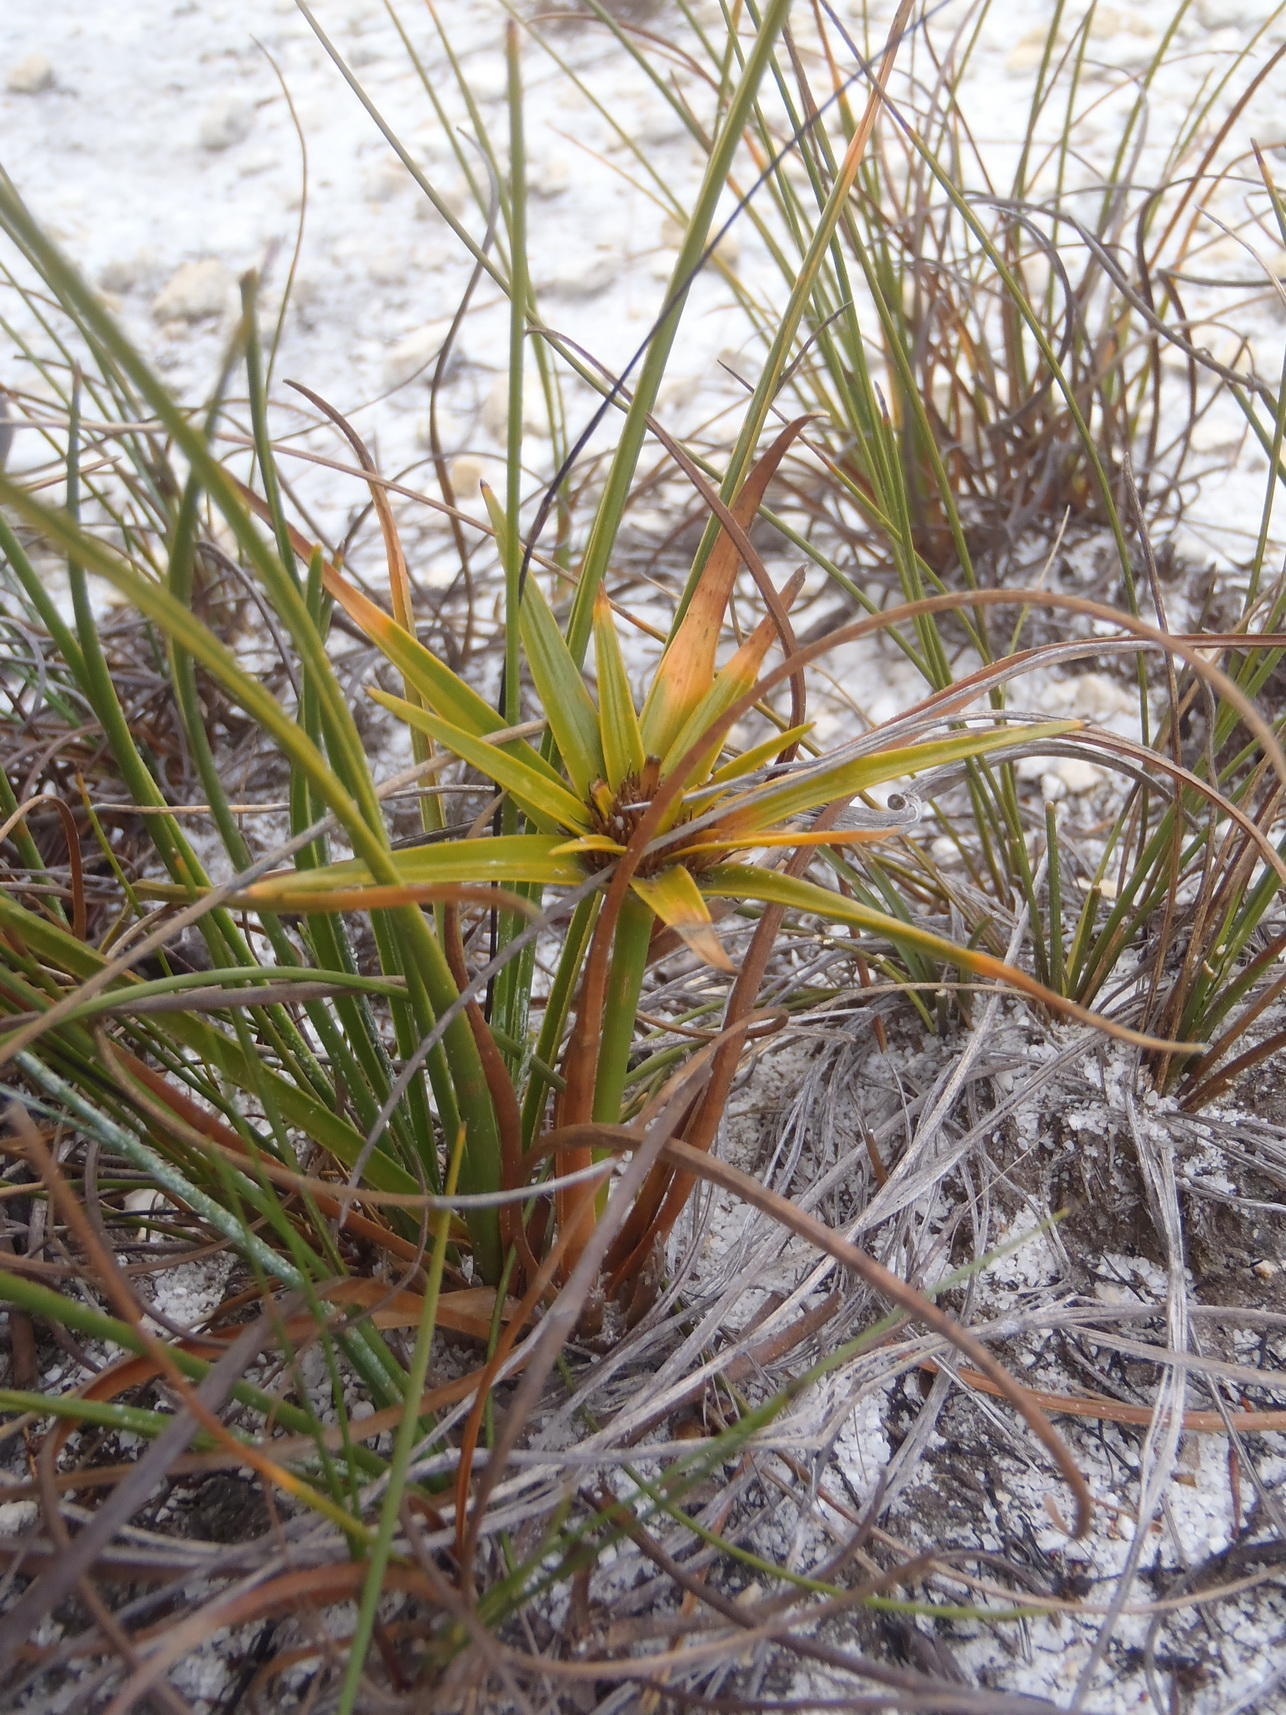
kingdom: Plantae
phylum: Tracheophyta
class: Liliopsida
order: Poales
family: Cyperaceae
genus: Ficinia
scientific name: Ficinia radiata
